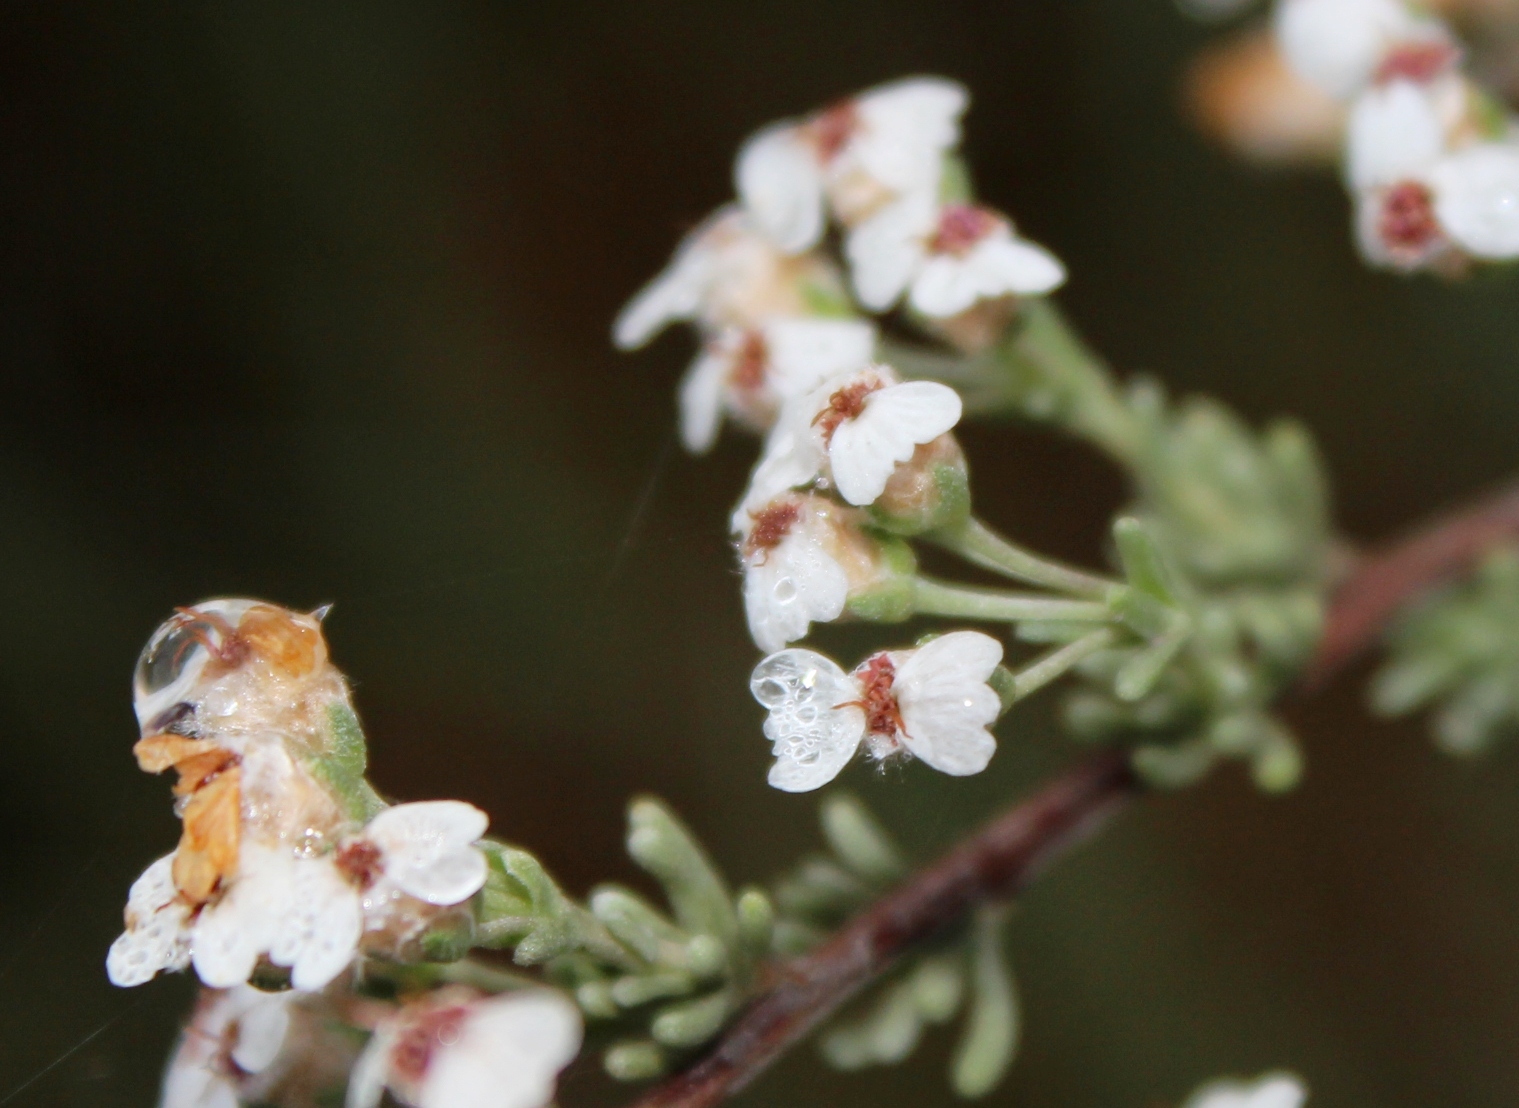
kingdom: Plantae
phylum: Tracheophyta
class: Magnoliopsida
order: Asterales
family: Asteraceae
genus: Eriocephalus
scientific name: Eriocephalus africanus
